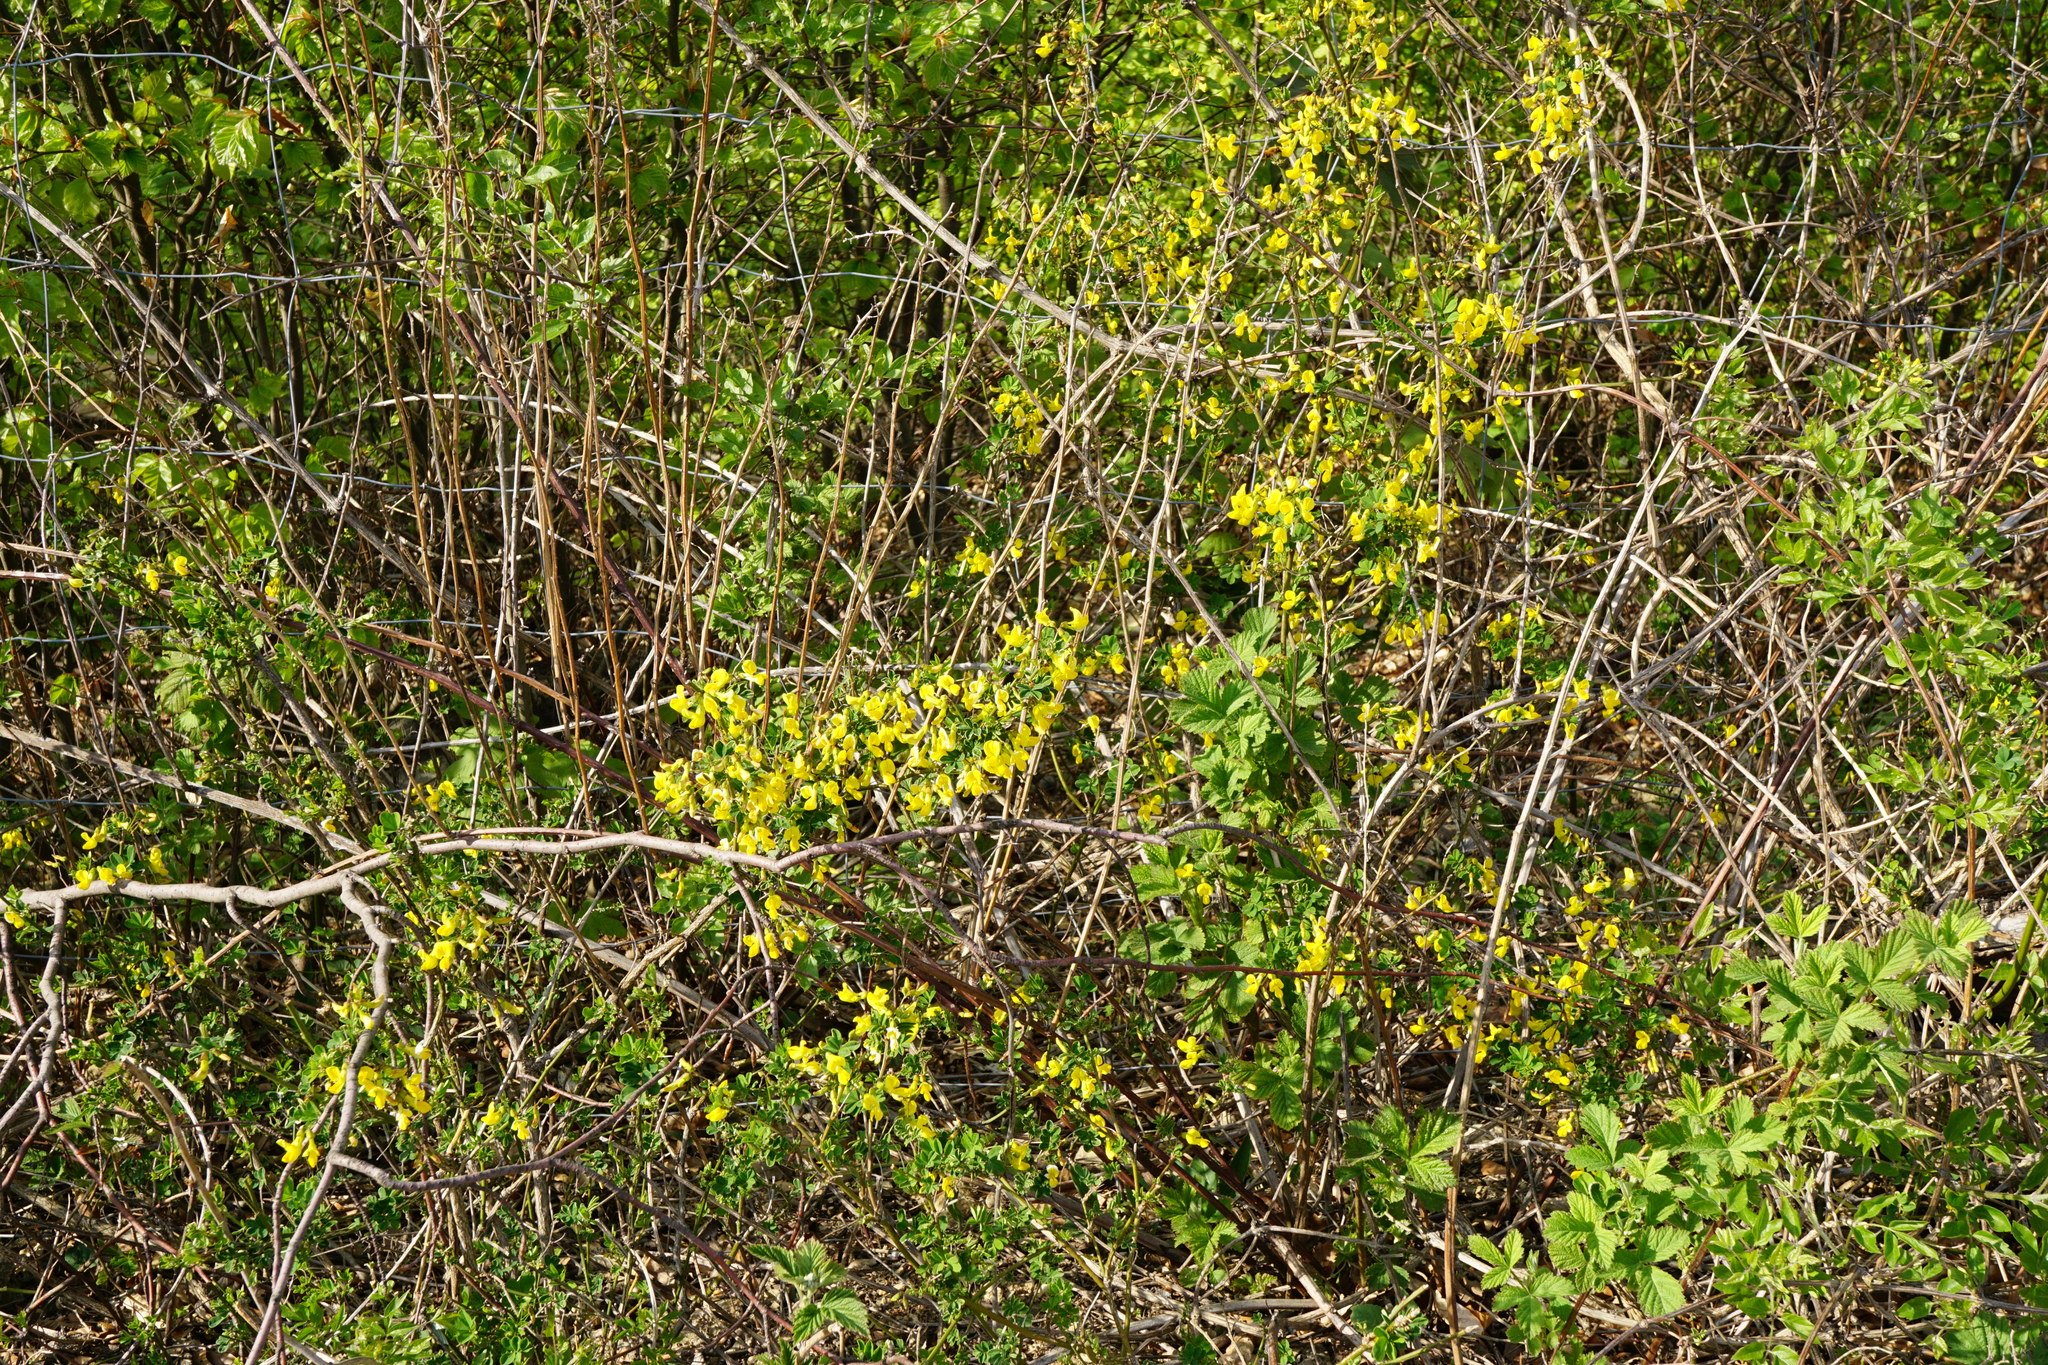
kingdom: Plantae
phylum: Tracheophyta
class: Magnoliopsida
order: Fabales
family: Fabaceae
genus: Hippocrepis
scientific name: Hippocrepis emerus
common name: Scorpion senna
